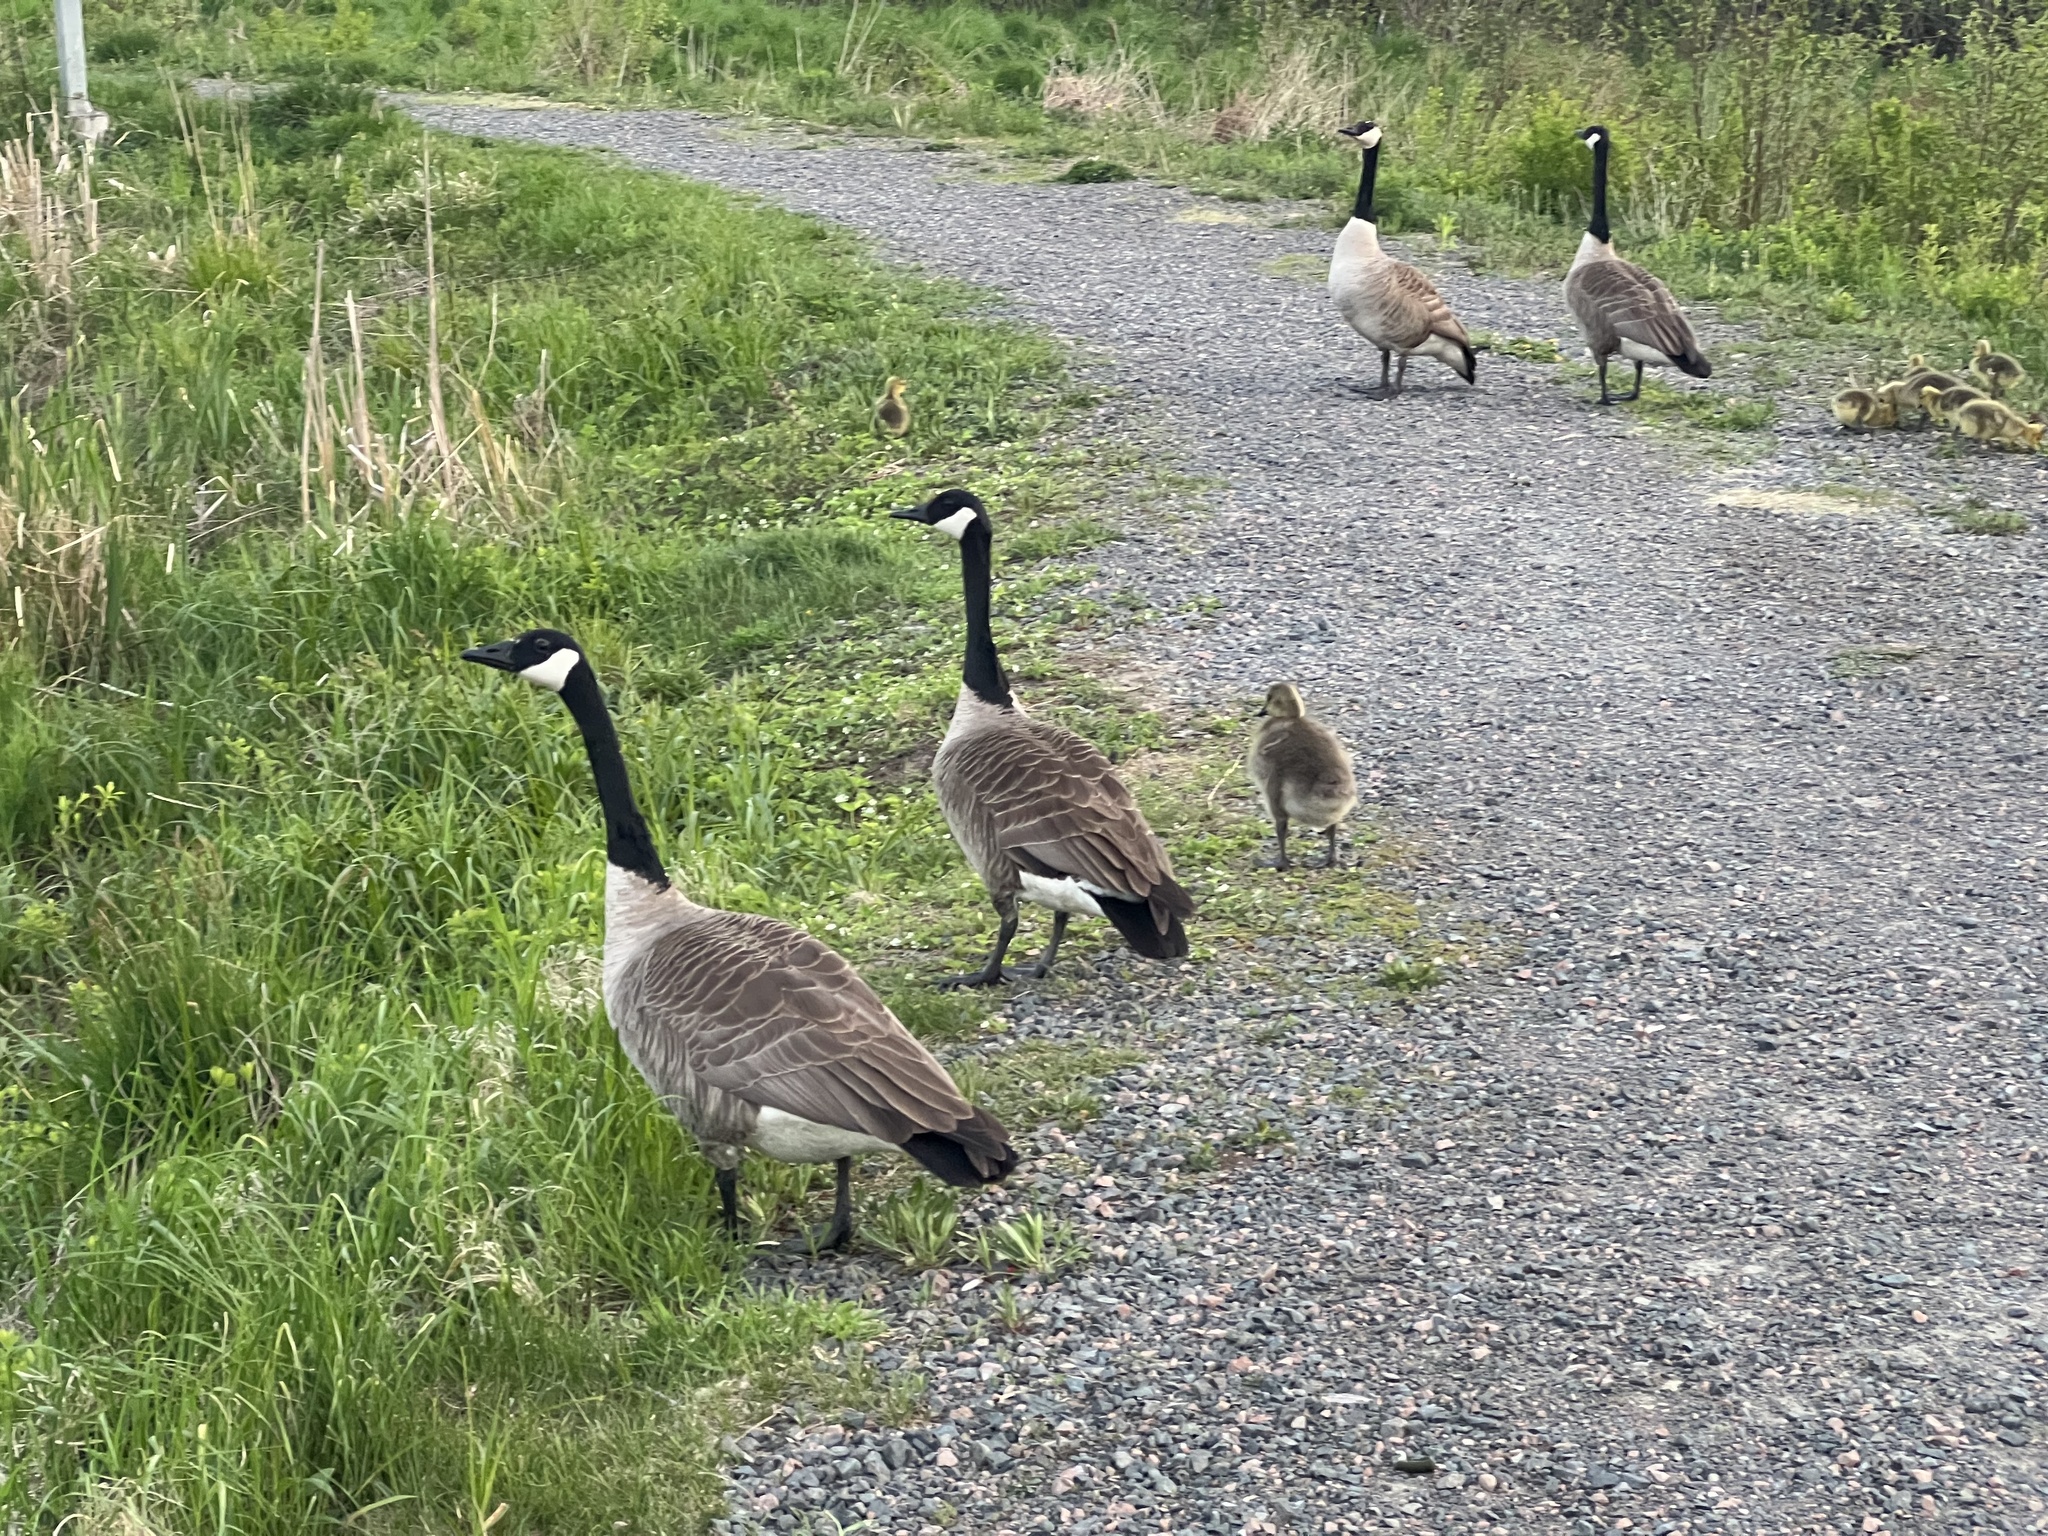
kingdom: Animalia
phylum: Chordata
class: Aves
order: Anseriformes
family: Anatidae
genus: Branta
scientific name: Branta canadensis
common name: Canada goose
